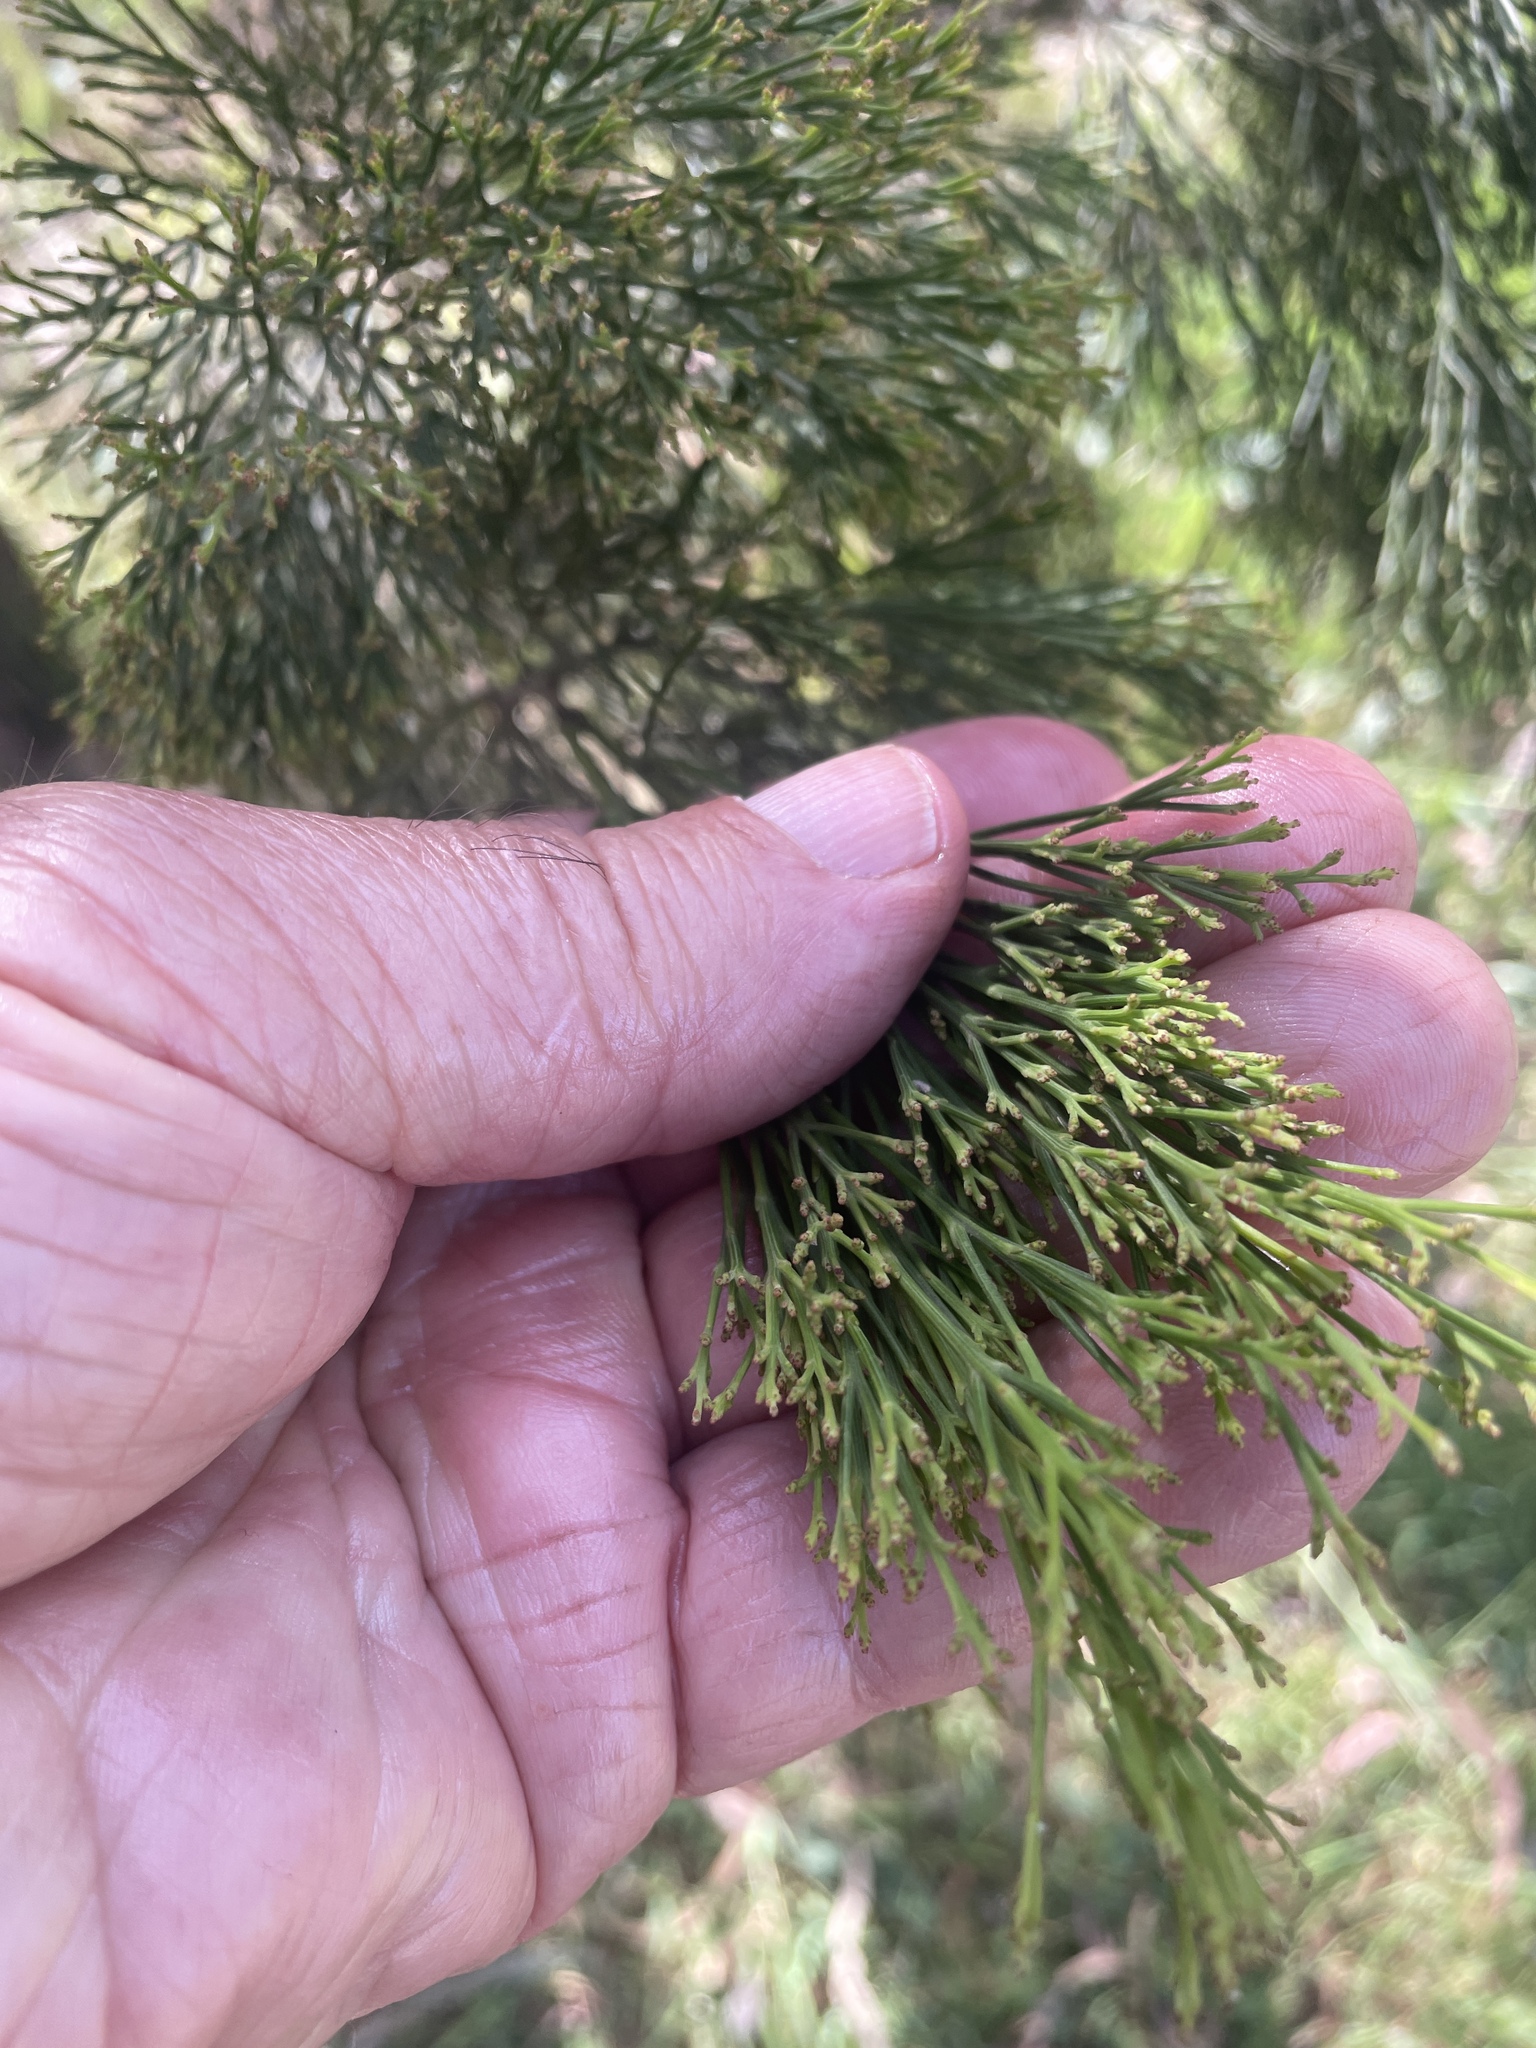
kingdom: Plantae
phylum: Tracheophyta
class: Magnoliopsida
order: Santalales
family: Santalaceae
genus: Exocarpos
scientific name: Exocarpos cupressiformis
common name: Cherry ballart
